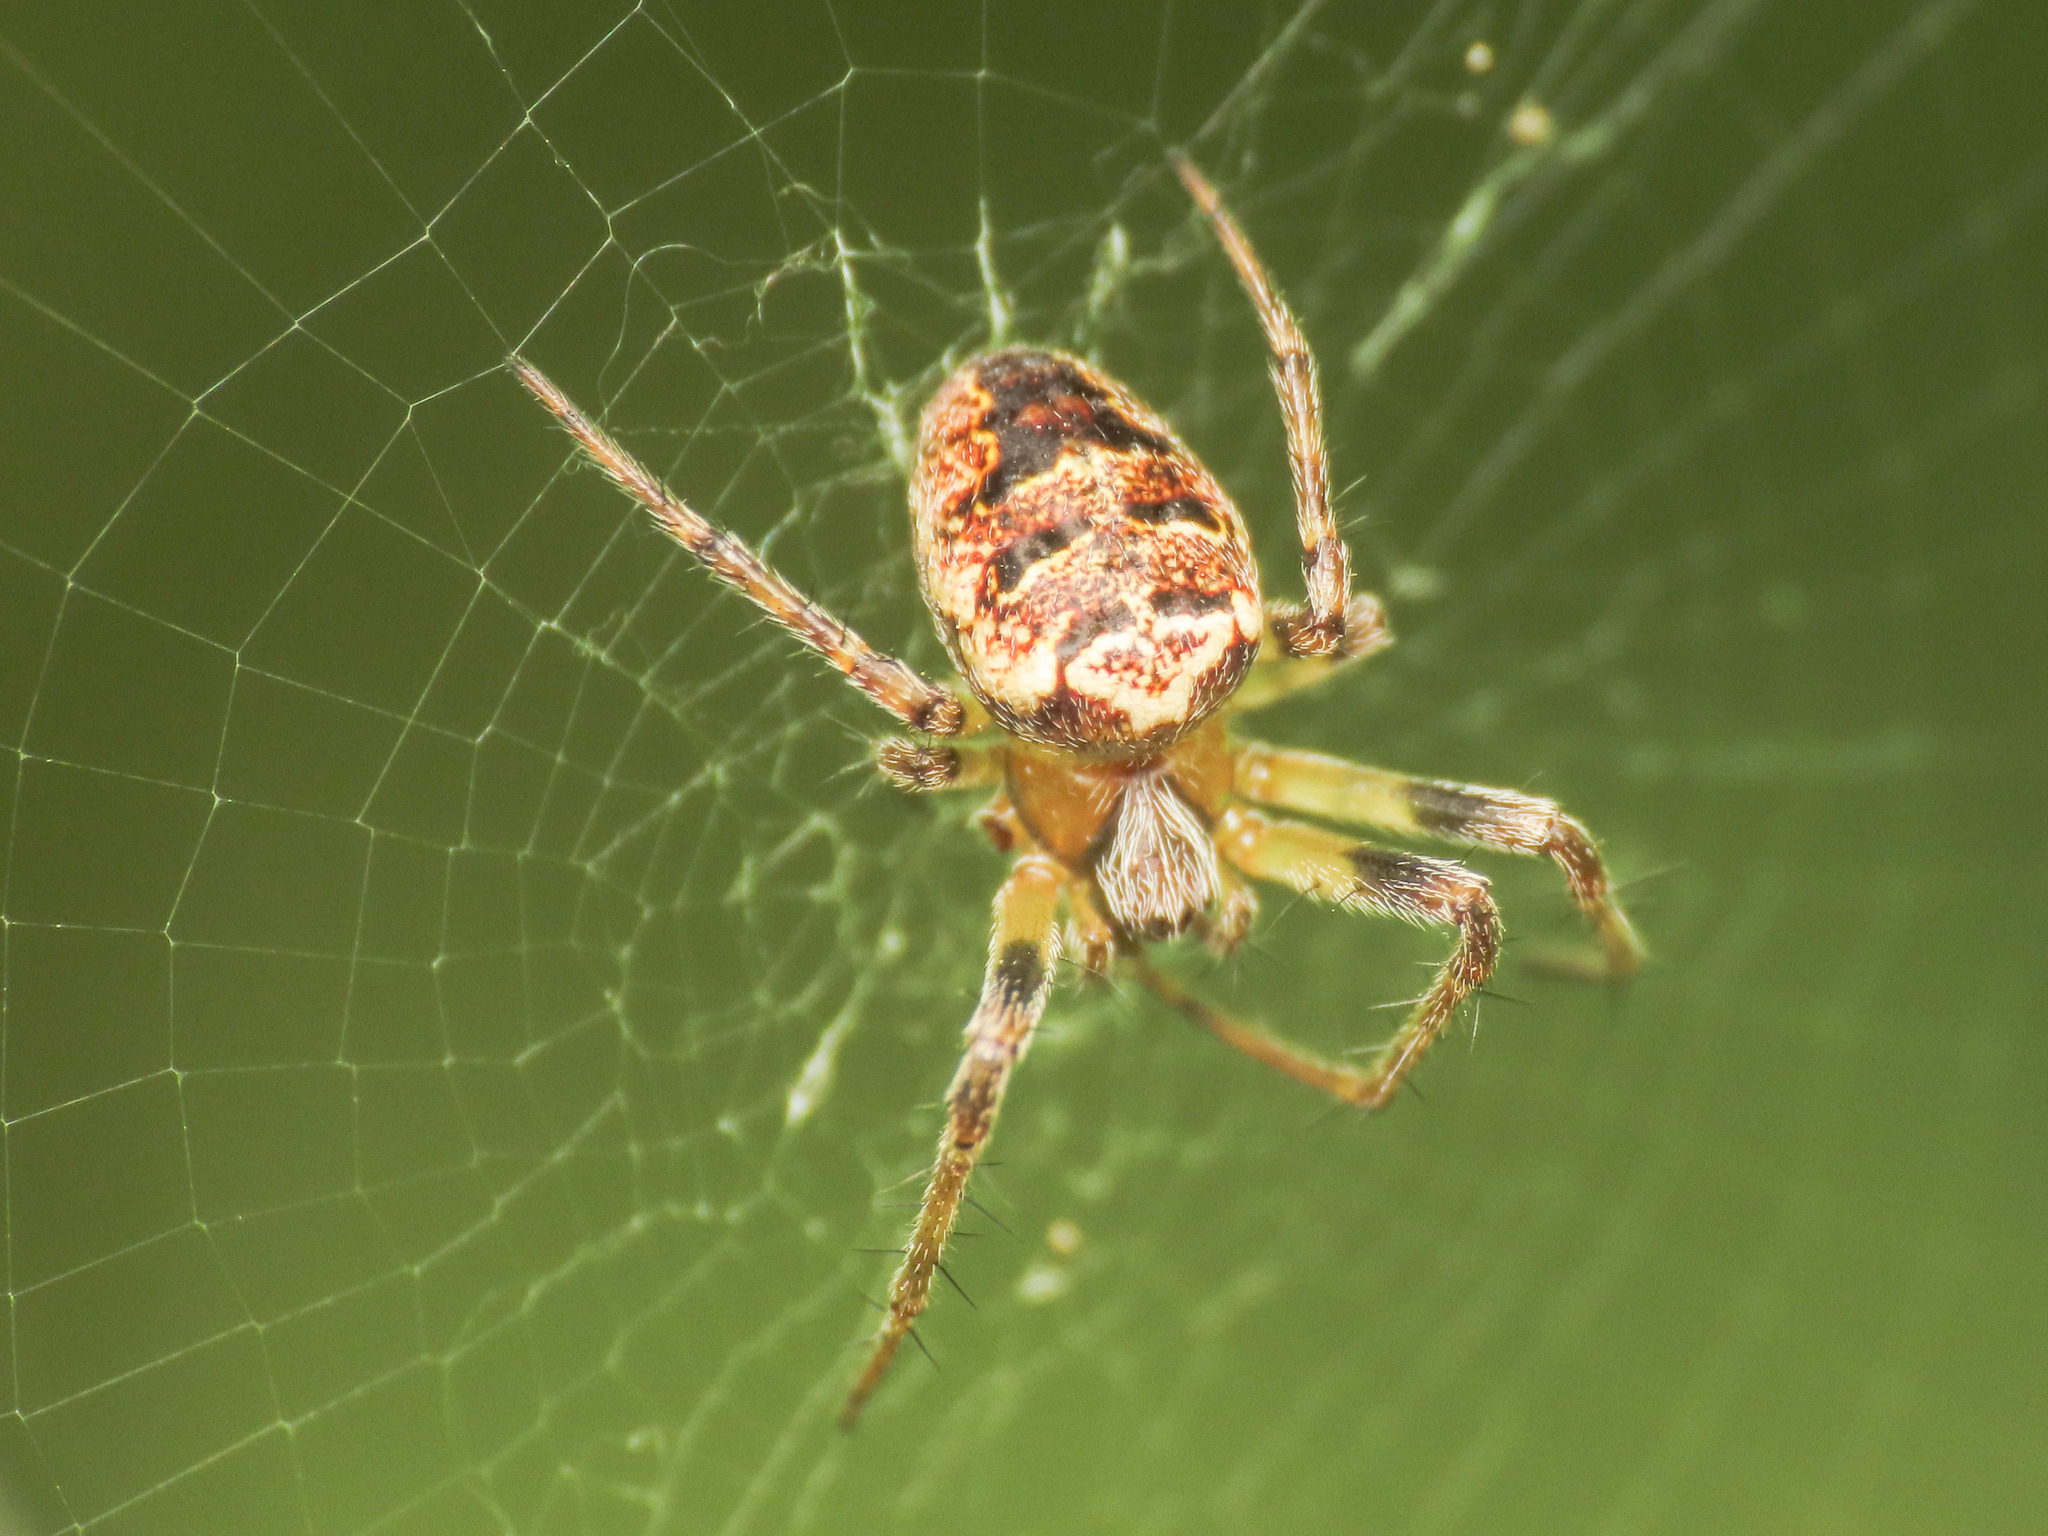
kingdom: Animalia
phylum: Arthropoda
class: Arachnida
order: Araneae
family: Araneidae
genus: Zilla
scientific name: Zilla diodia
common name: Zilla diodia
